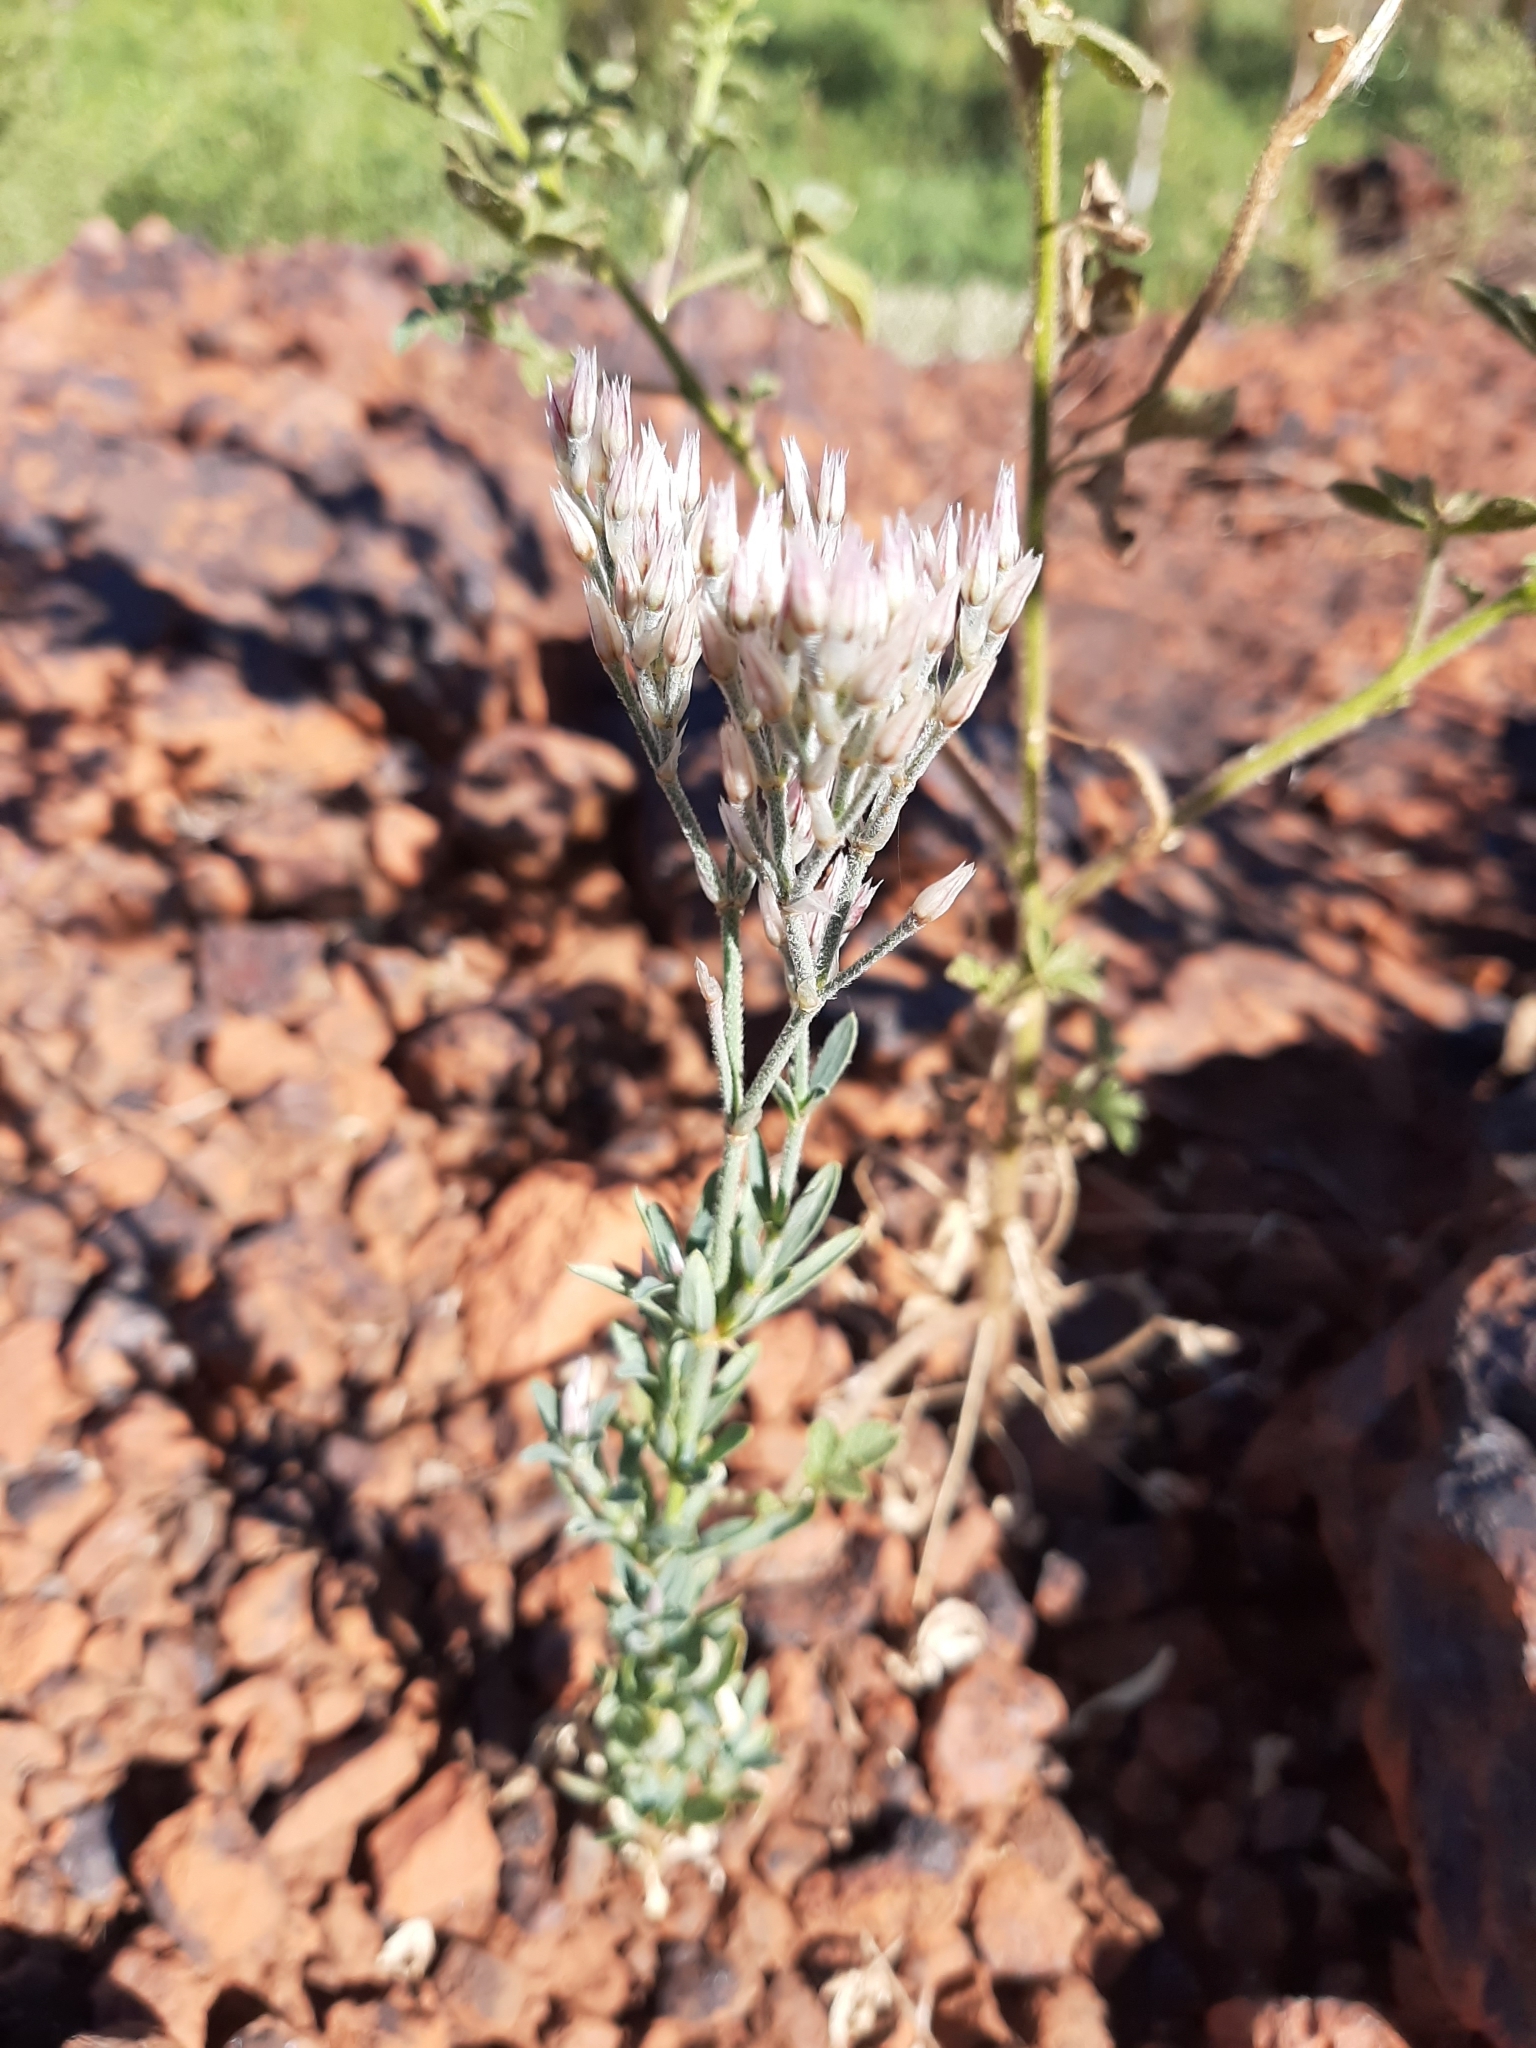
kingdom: Plantae
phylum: Tracheophyta
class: Magnoliopsida
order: Caryophyllales
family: Caryophyllaceae
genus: Polycarpaea
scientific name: Polycarpaea longiflora
